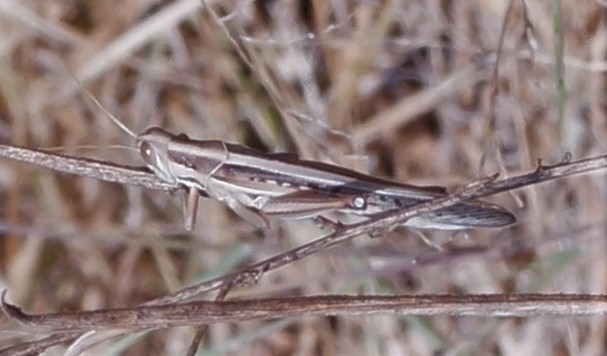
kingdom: Animalia
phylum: Arthropoda
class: Insecta
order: Orthoptera
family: Acrididae
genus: Austracris
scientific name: Austracris guttulosa
